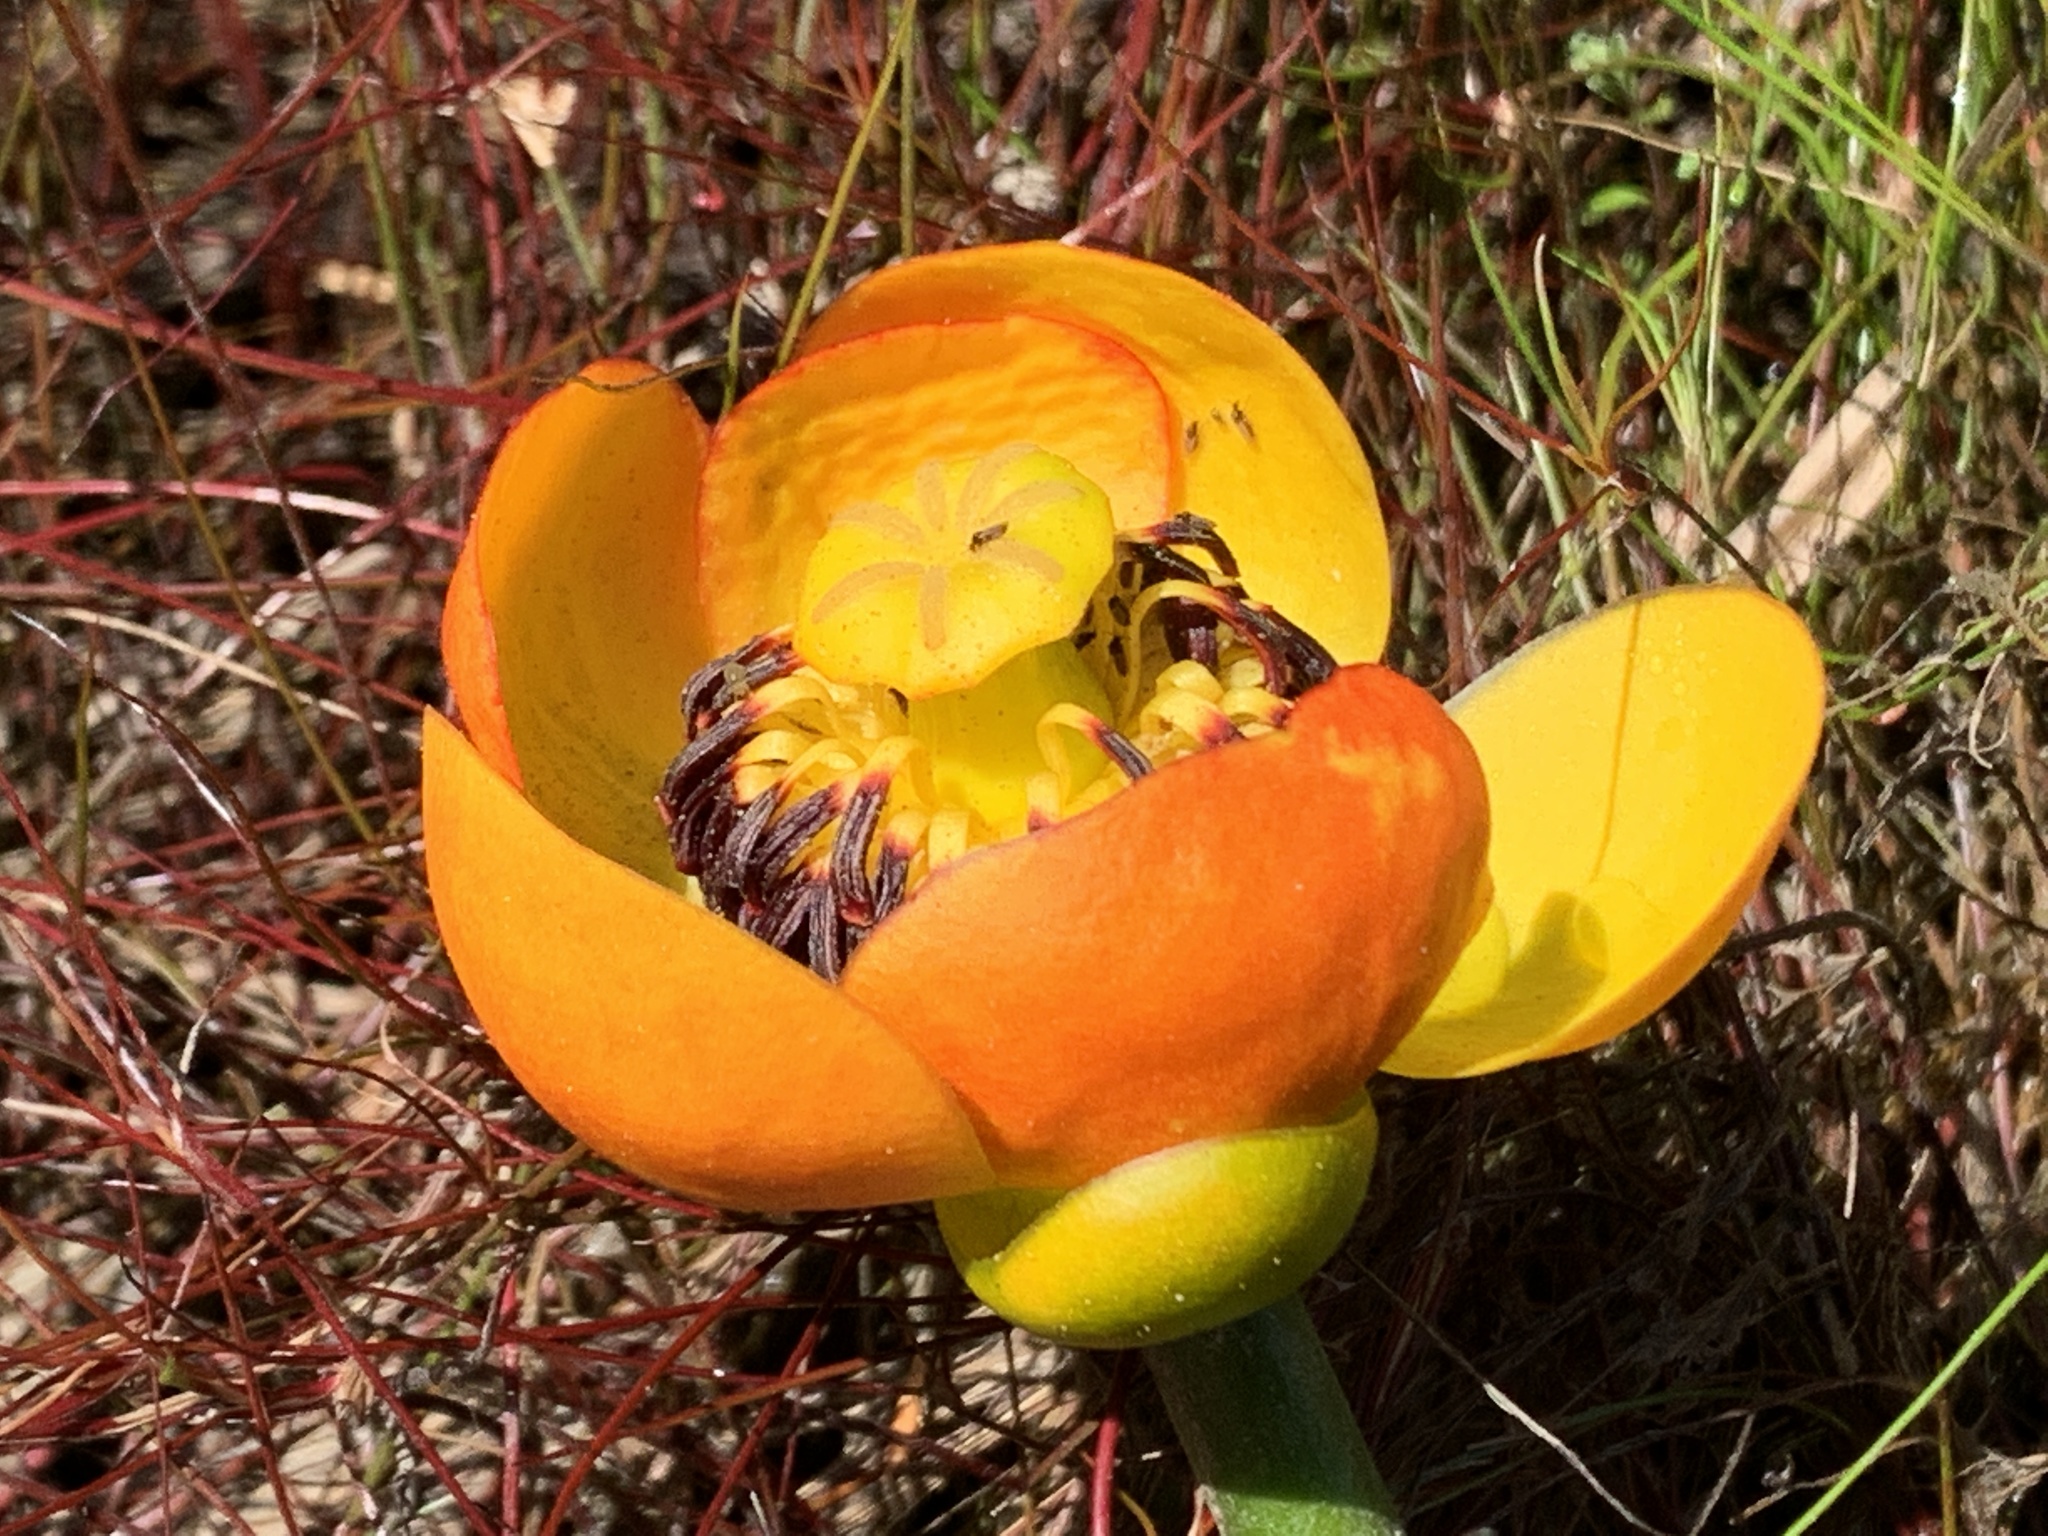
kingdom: Plantae
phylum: Tracheophyta
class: Magnoliopsida
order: Nymphaeales
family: Nymphaeaceae
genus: Nuphar
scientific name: Nuphar polysepala
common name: Rocky mountain cow-lily
